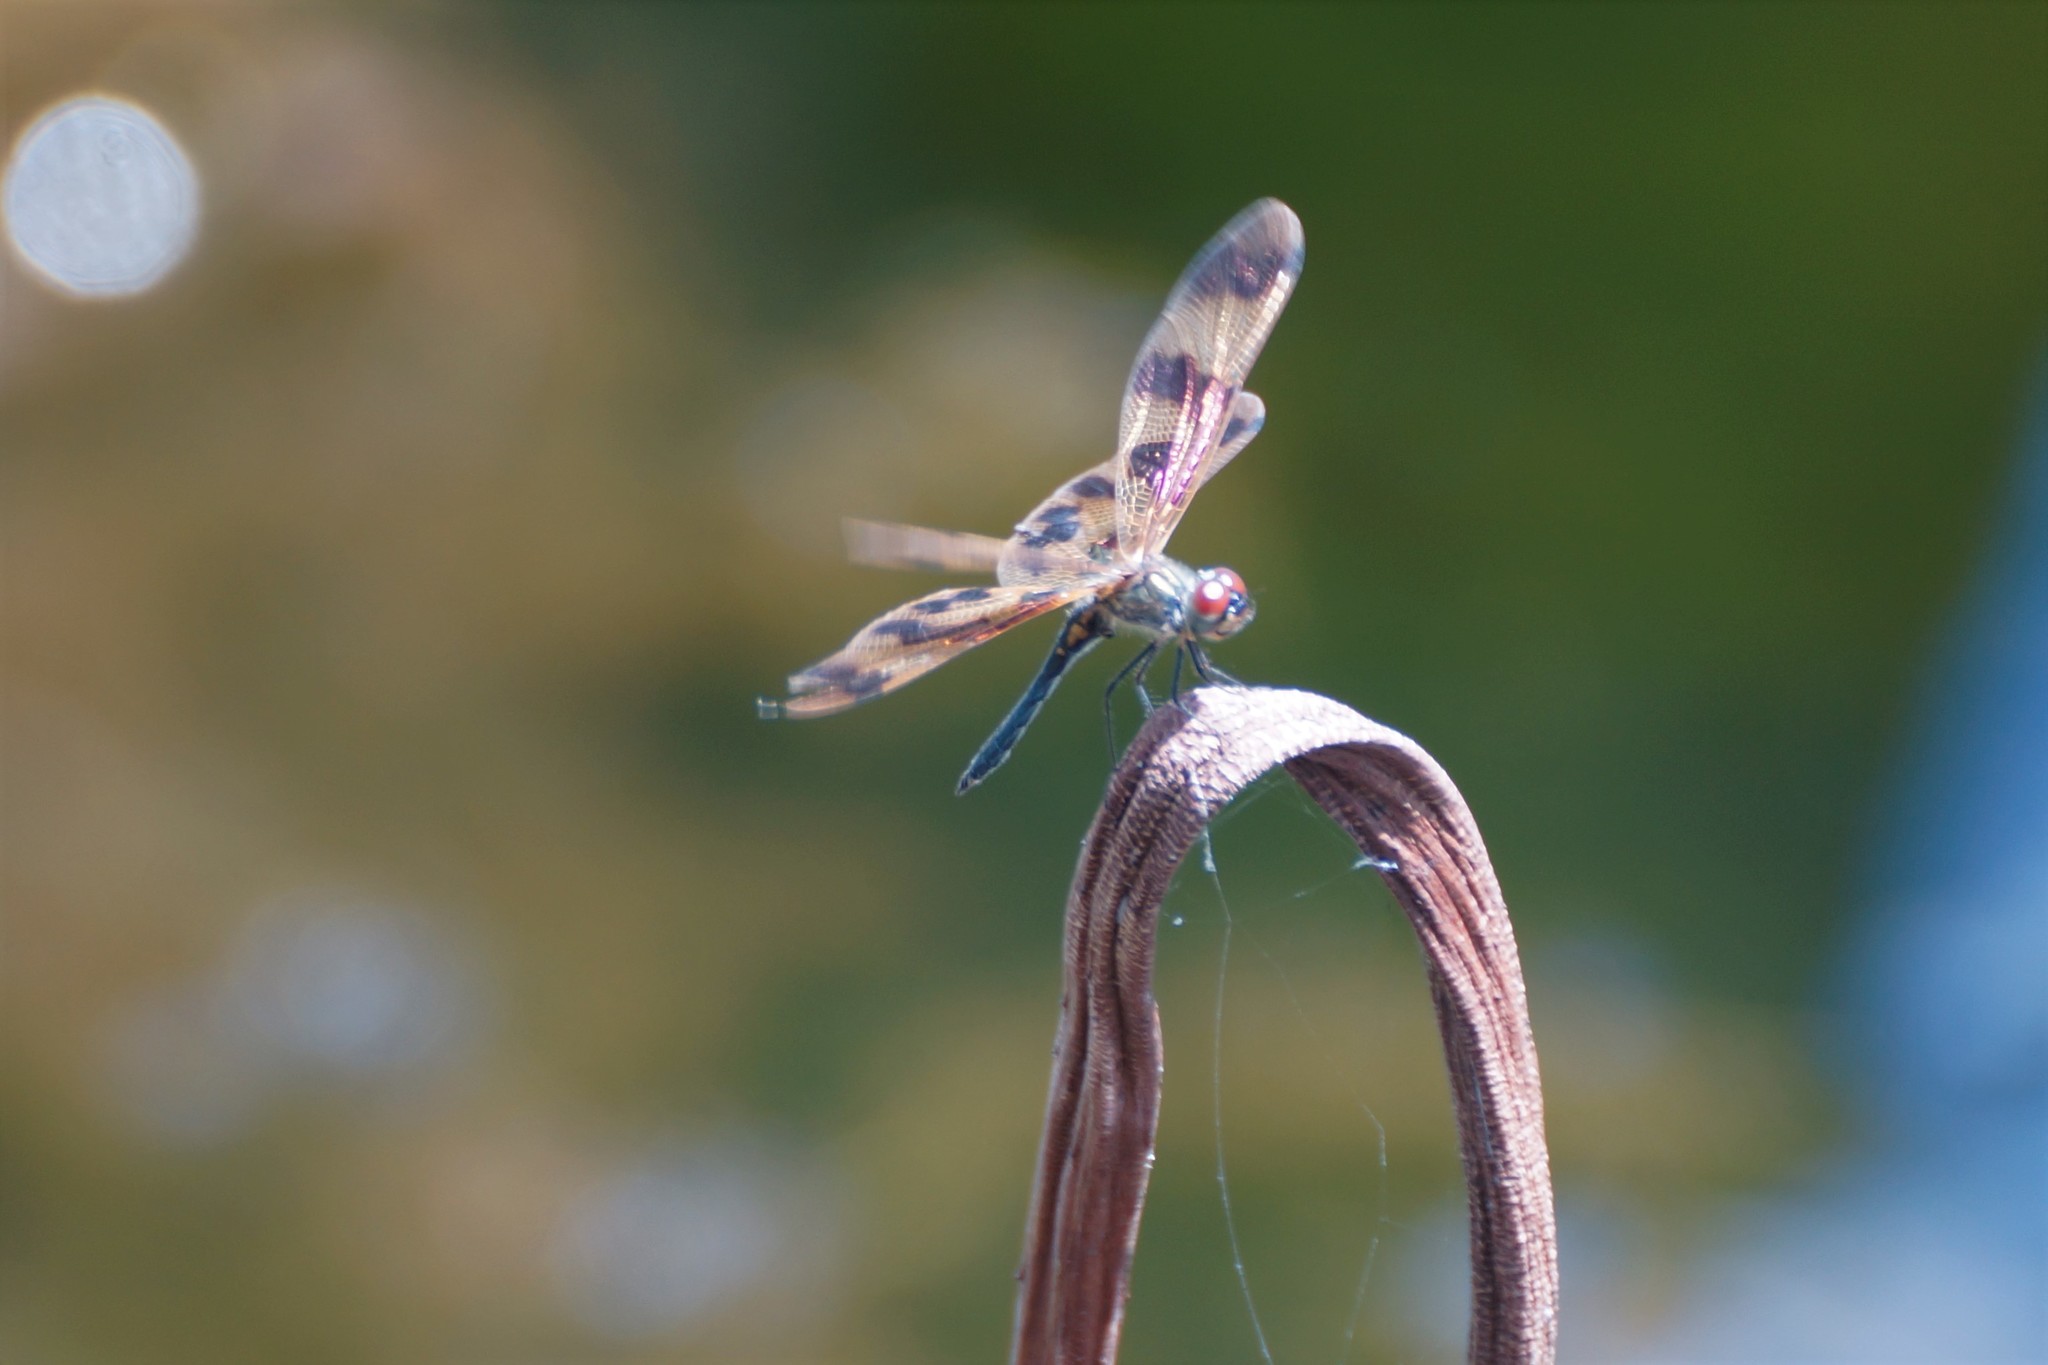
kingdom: Animalia
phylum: Arthropoda
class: Insecta
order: Odonata
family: Libellulidae
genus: Rhyothemis
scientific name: Rhyothemis graphiptera
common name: Graphic flutterer
